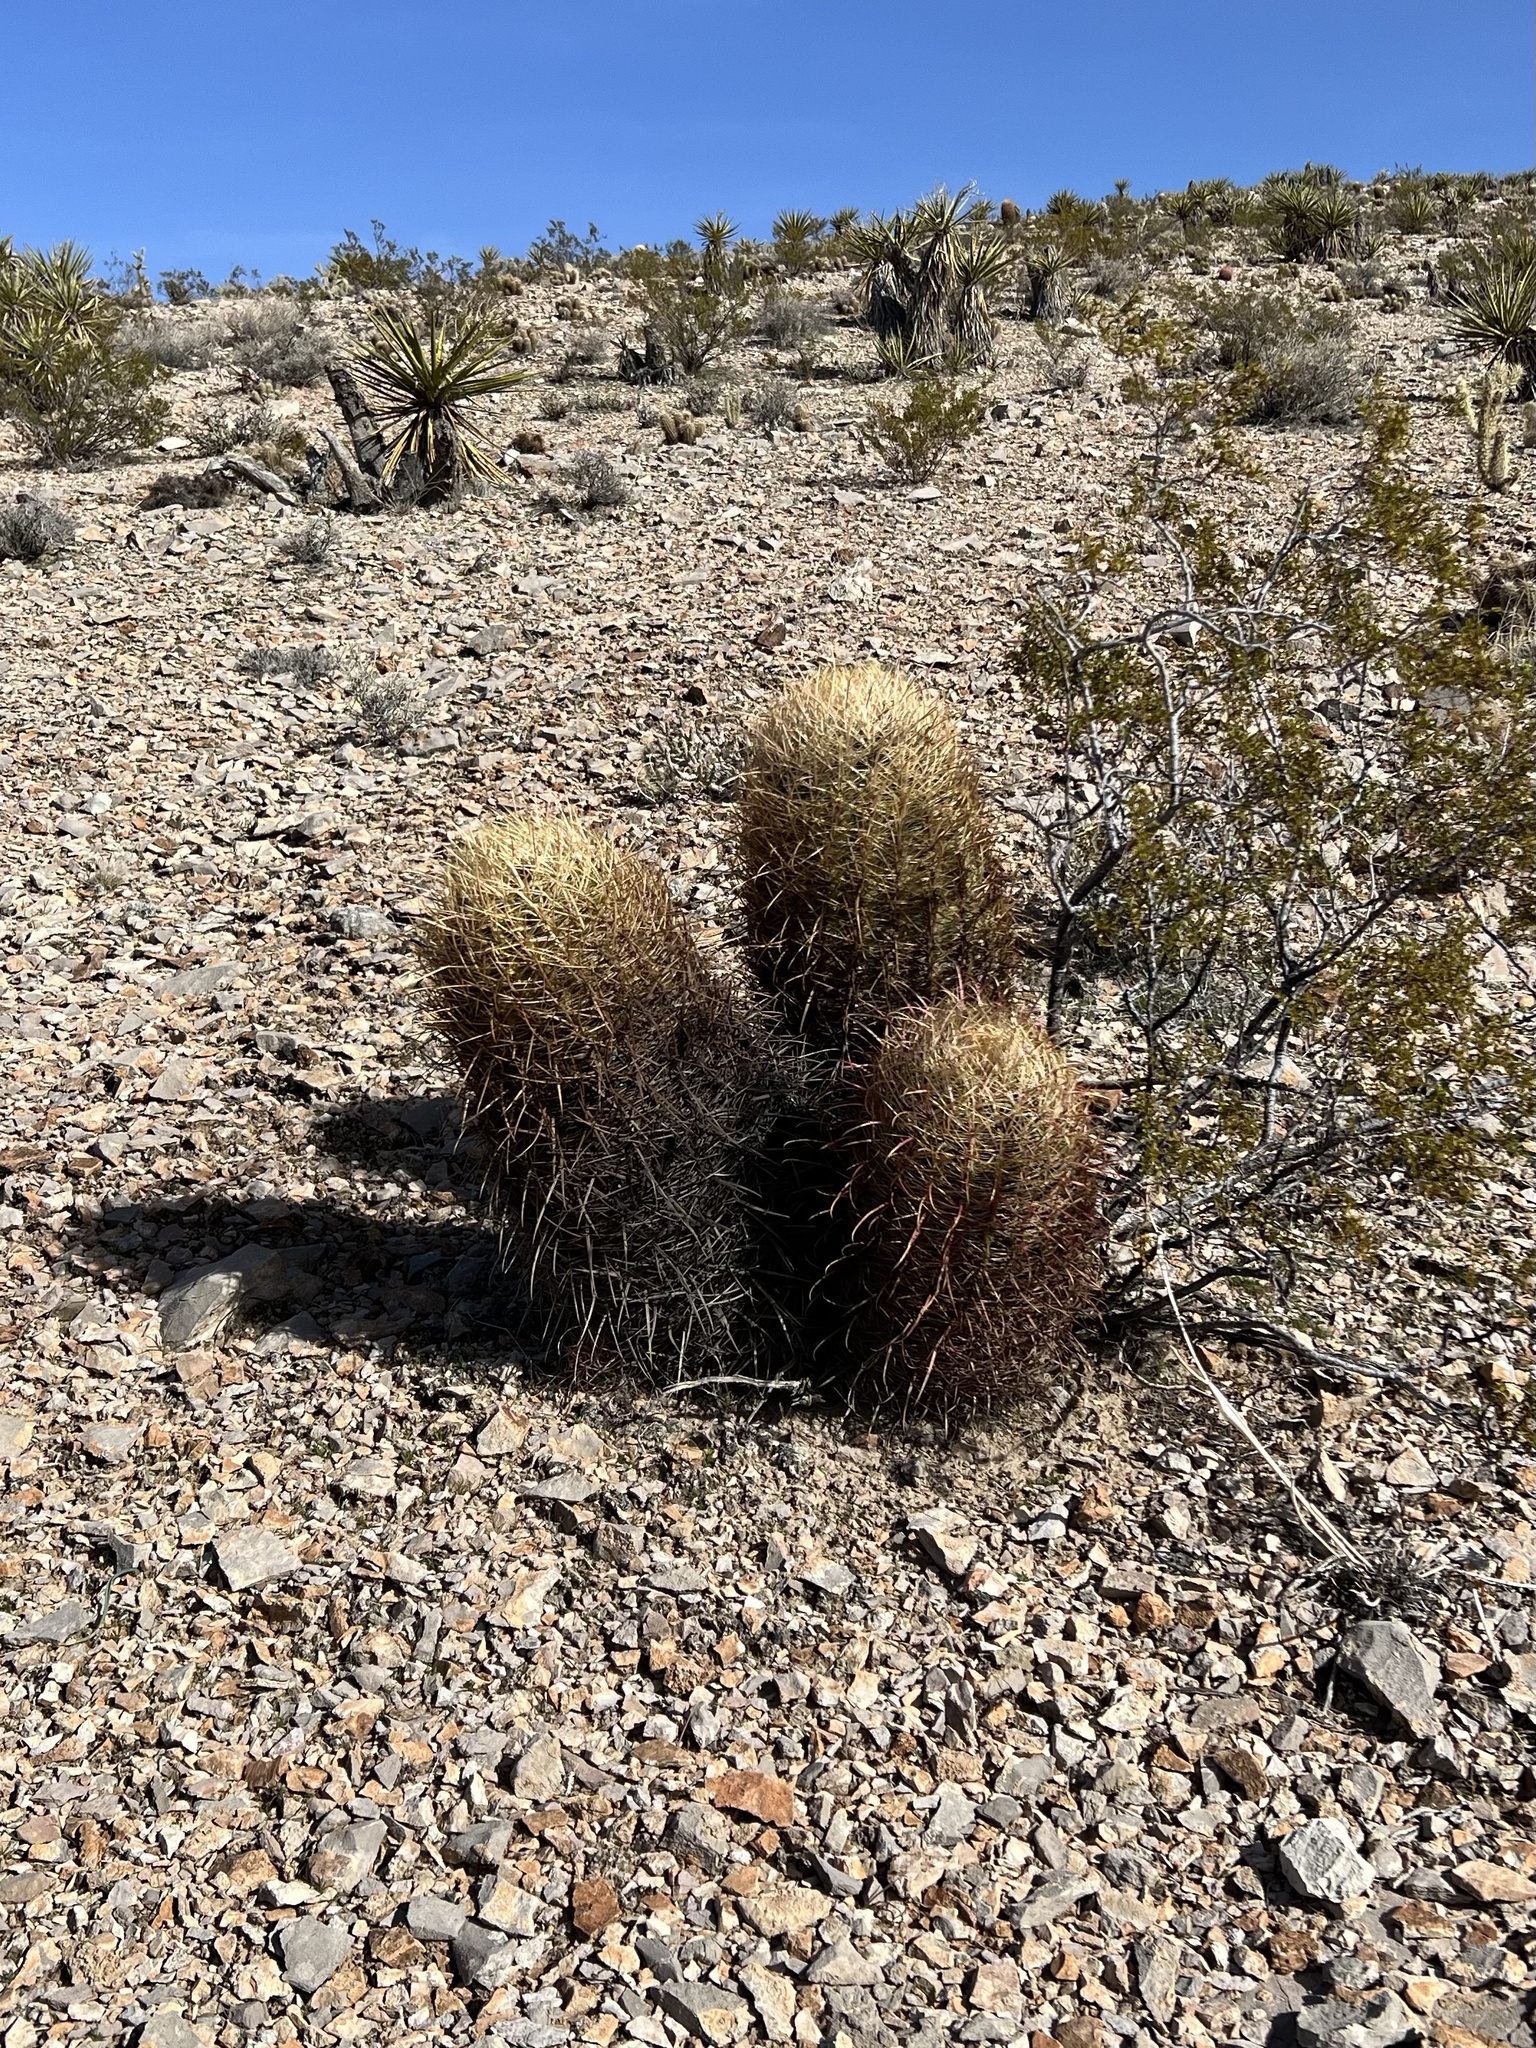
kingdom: Plantae
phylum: Tracheophyta
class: Magnoliopsida
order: Caryophyllales
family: Cactaceae
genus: Ferocactus
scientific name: Ferocactus cylindraceus
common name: California barrel cactus
